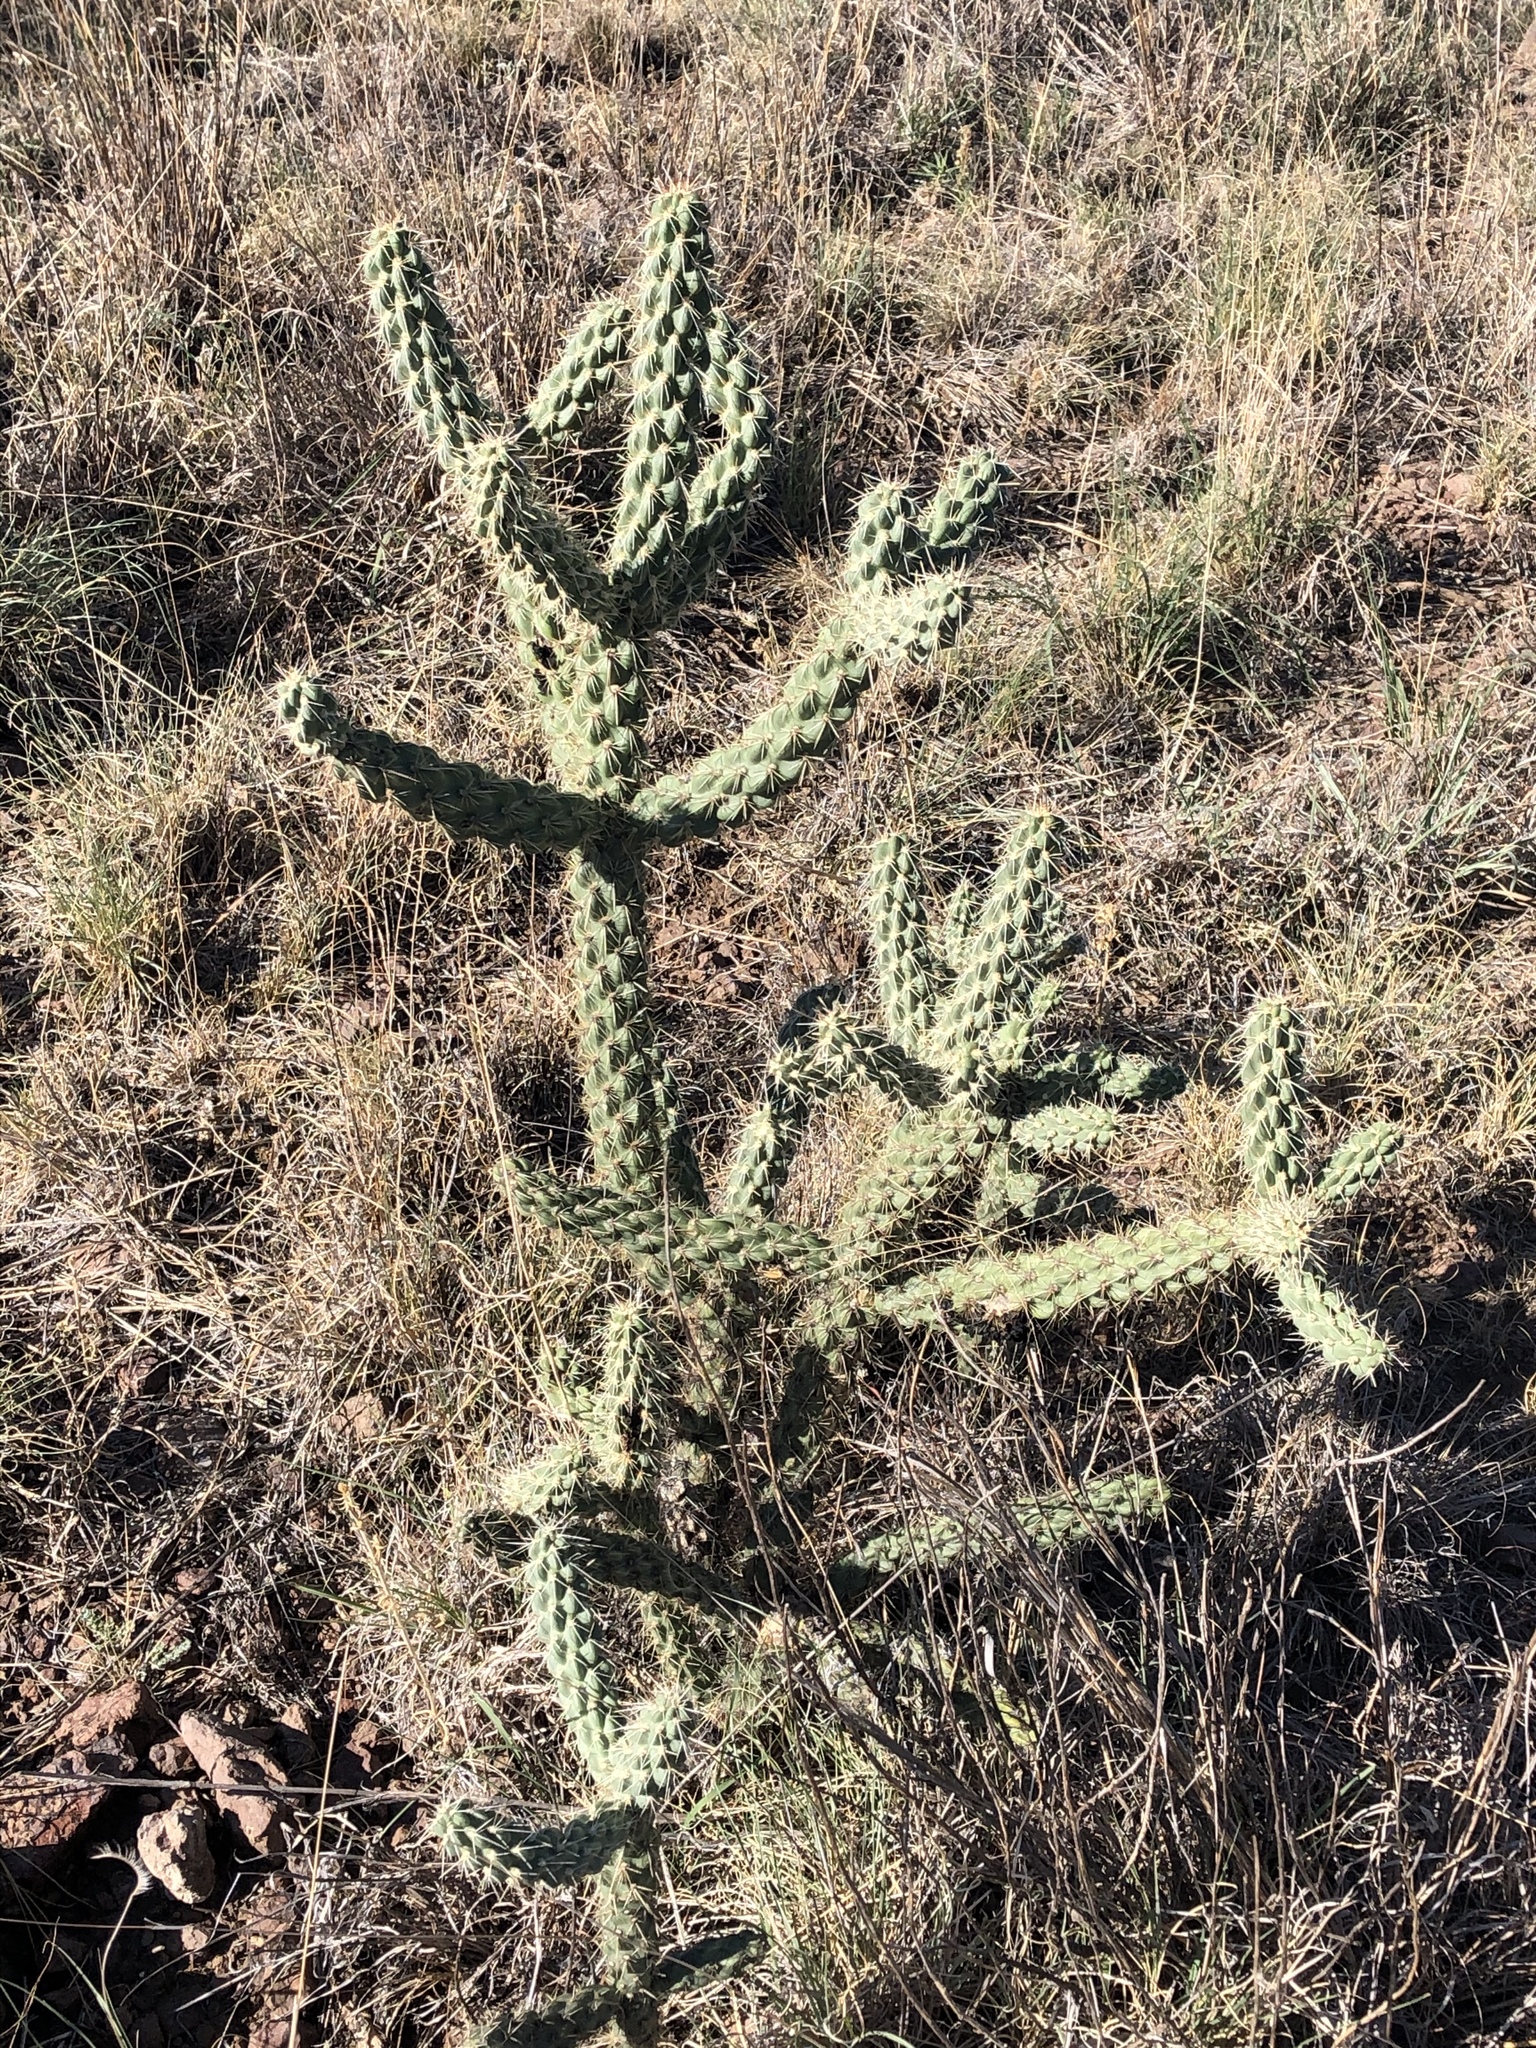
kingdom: Plantae
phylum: Tracheophyta
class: Magnoliopsida
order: Caryophyllales
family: Cactaceae
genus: Cylindropuntia
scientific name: Cylindropuntia imbricata
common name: Candelabrum cactus
